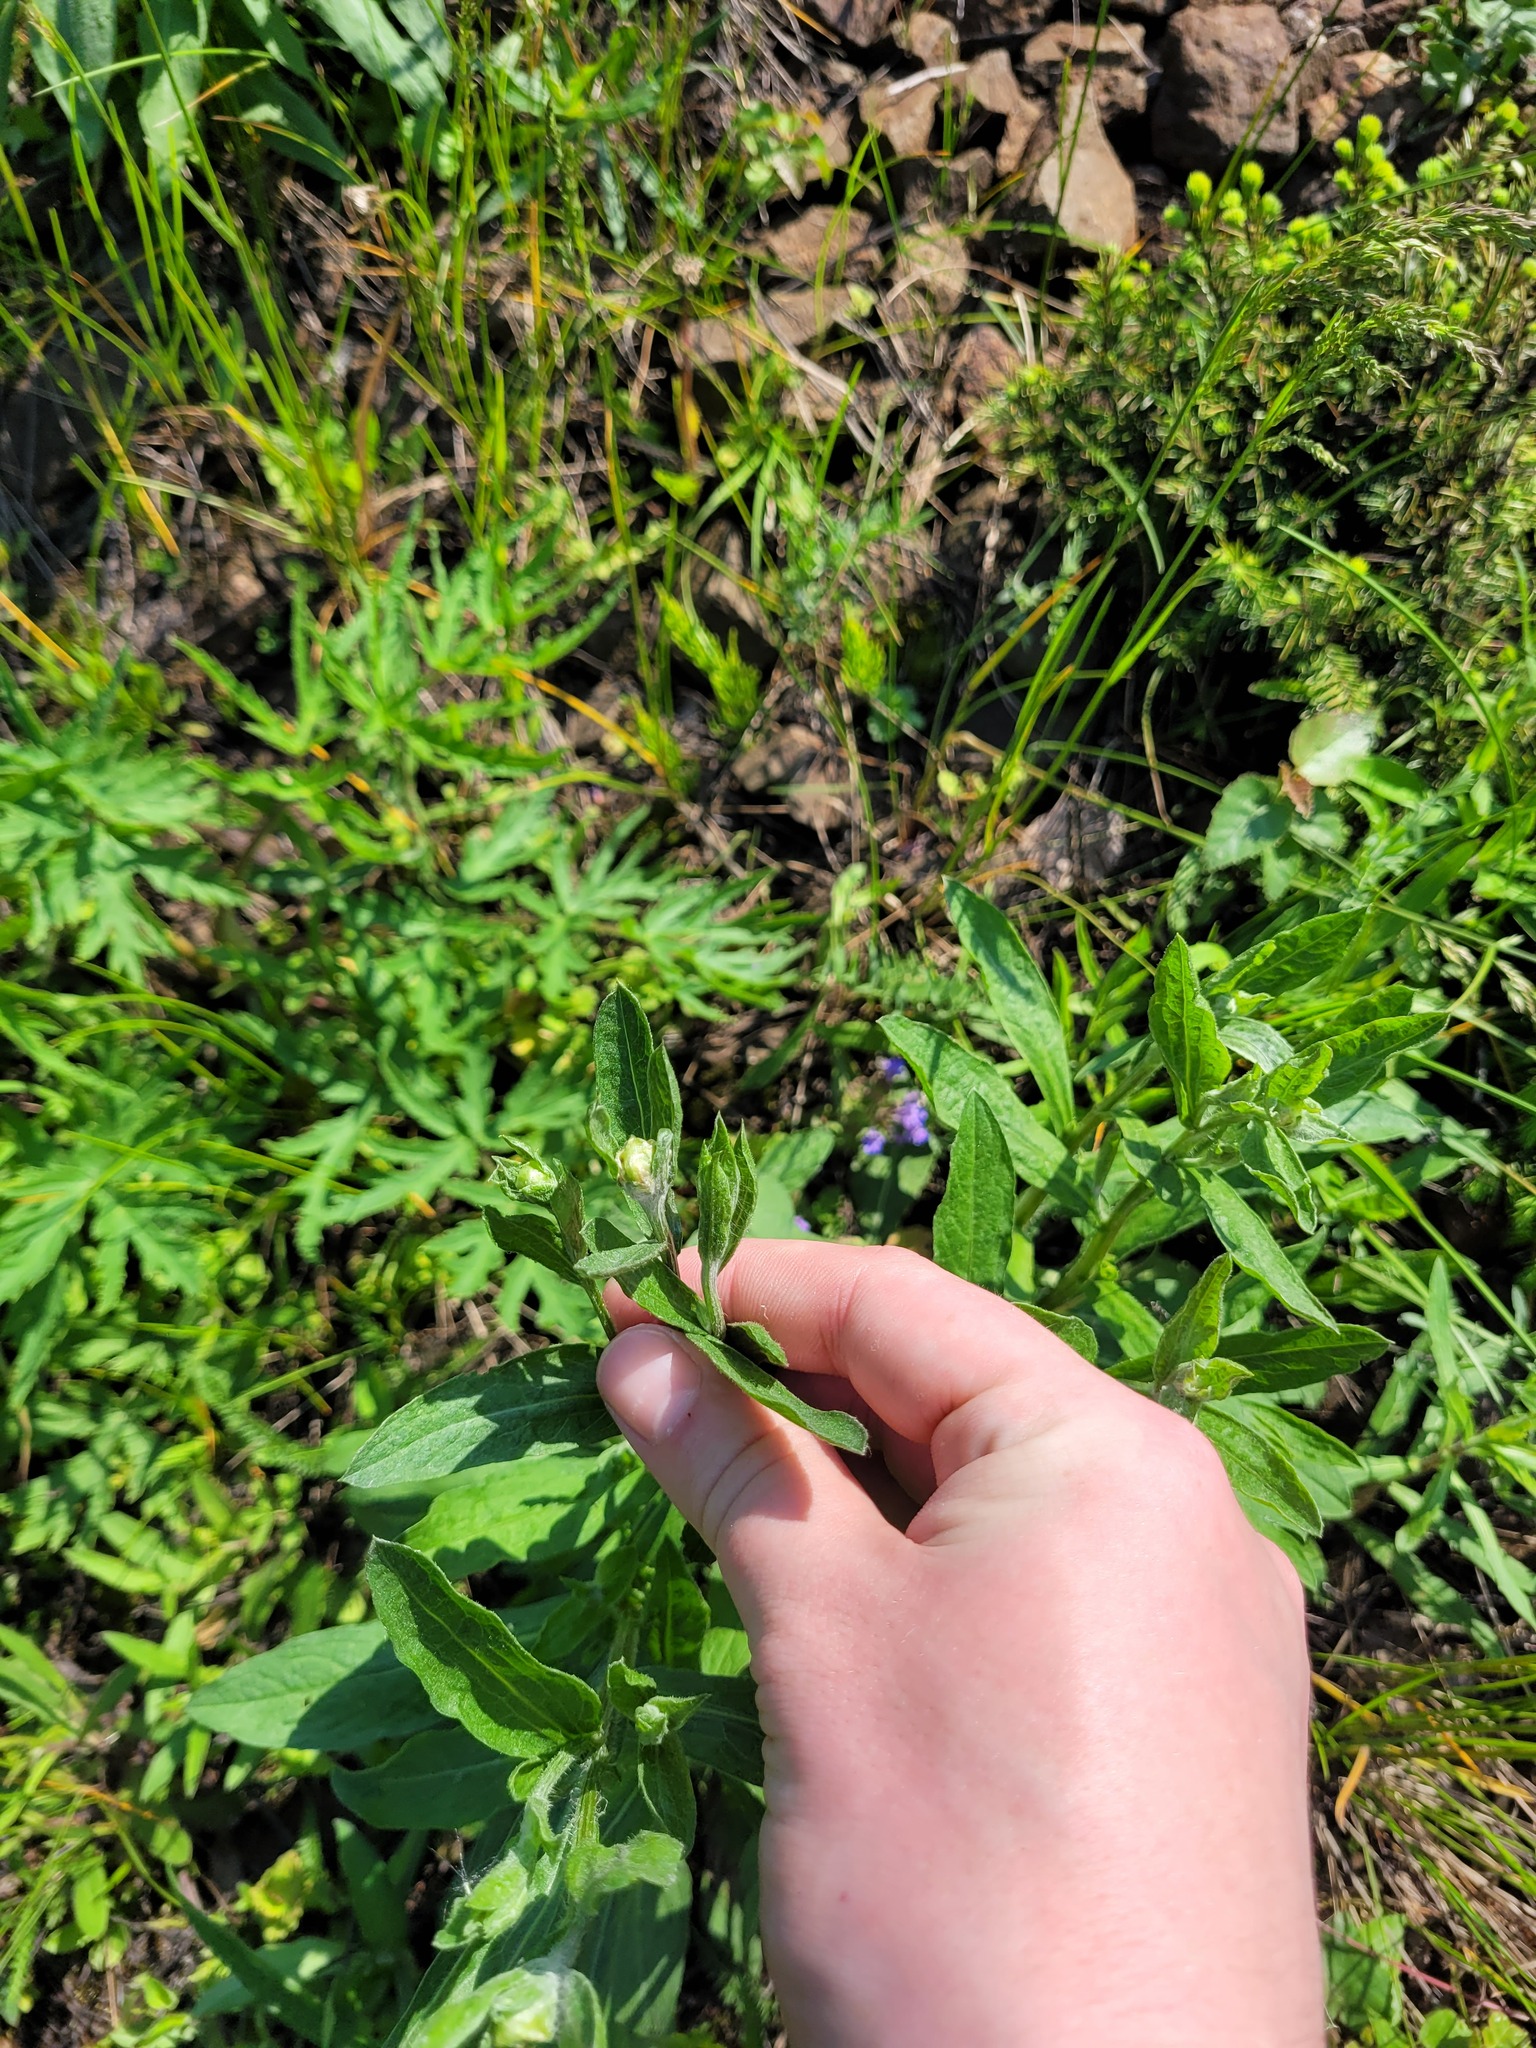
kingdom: Plantae
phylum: Tracheophyta
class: Magnoliopsida
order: Asterales
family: Asteraceae
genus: Centaurea
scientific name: Centaurea jacea
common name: Brown knapweed
